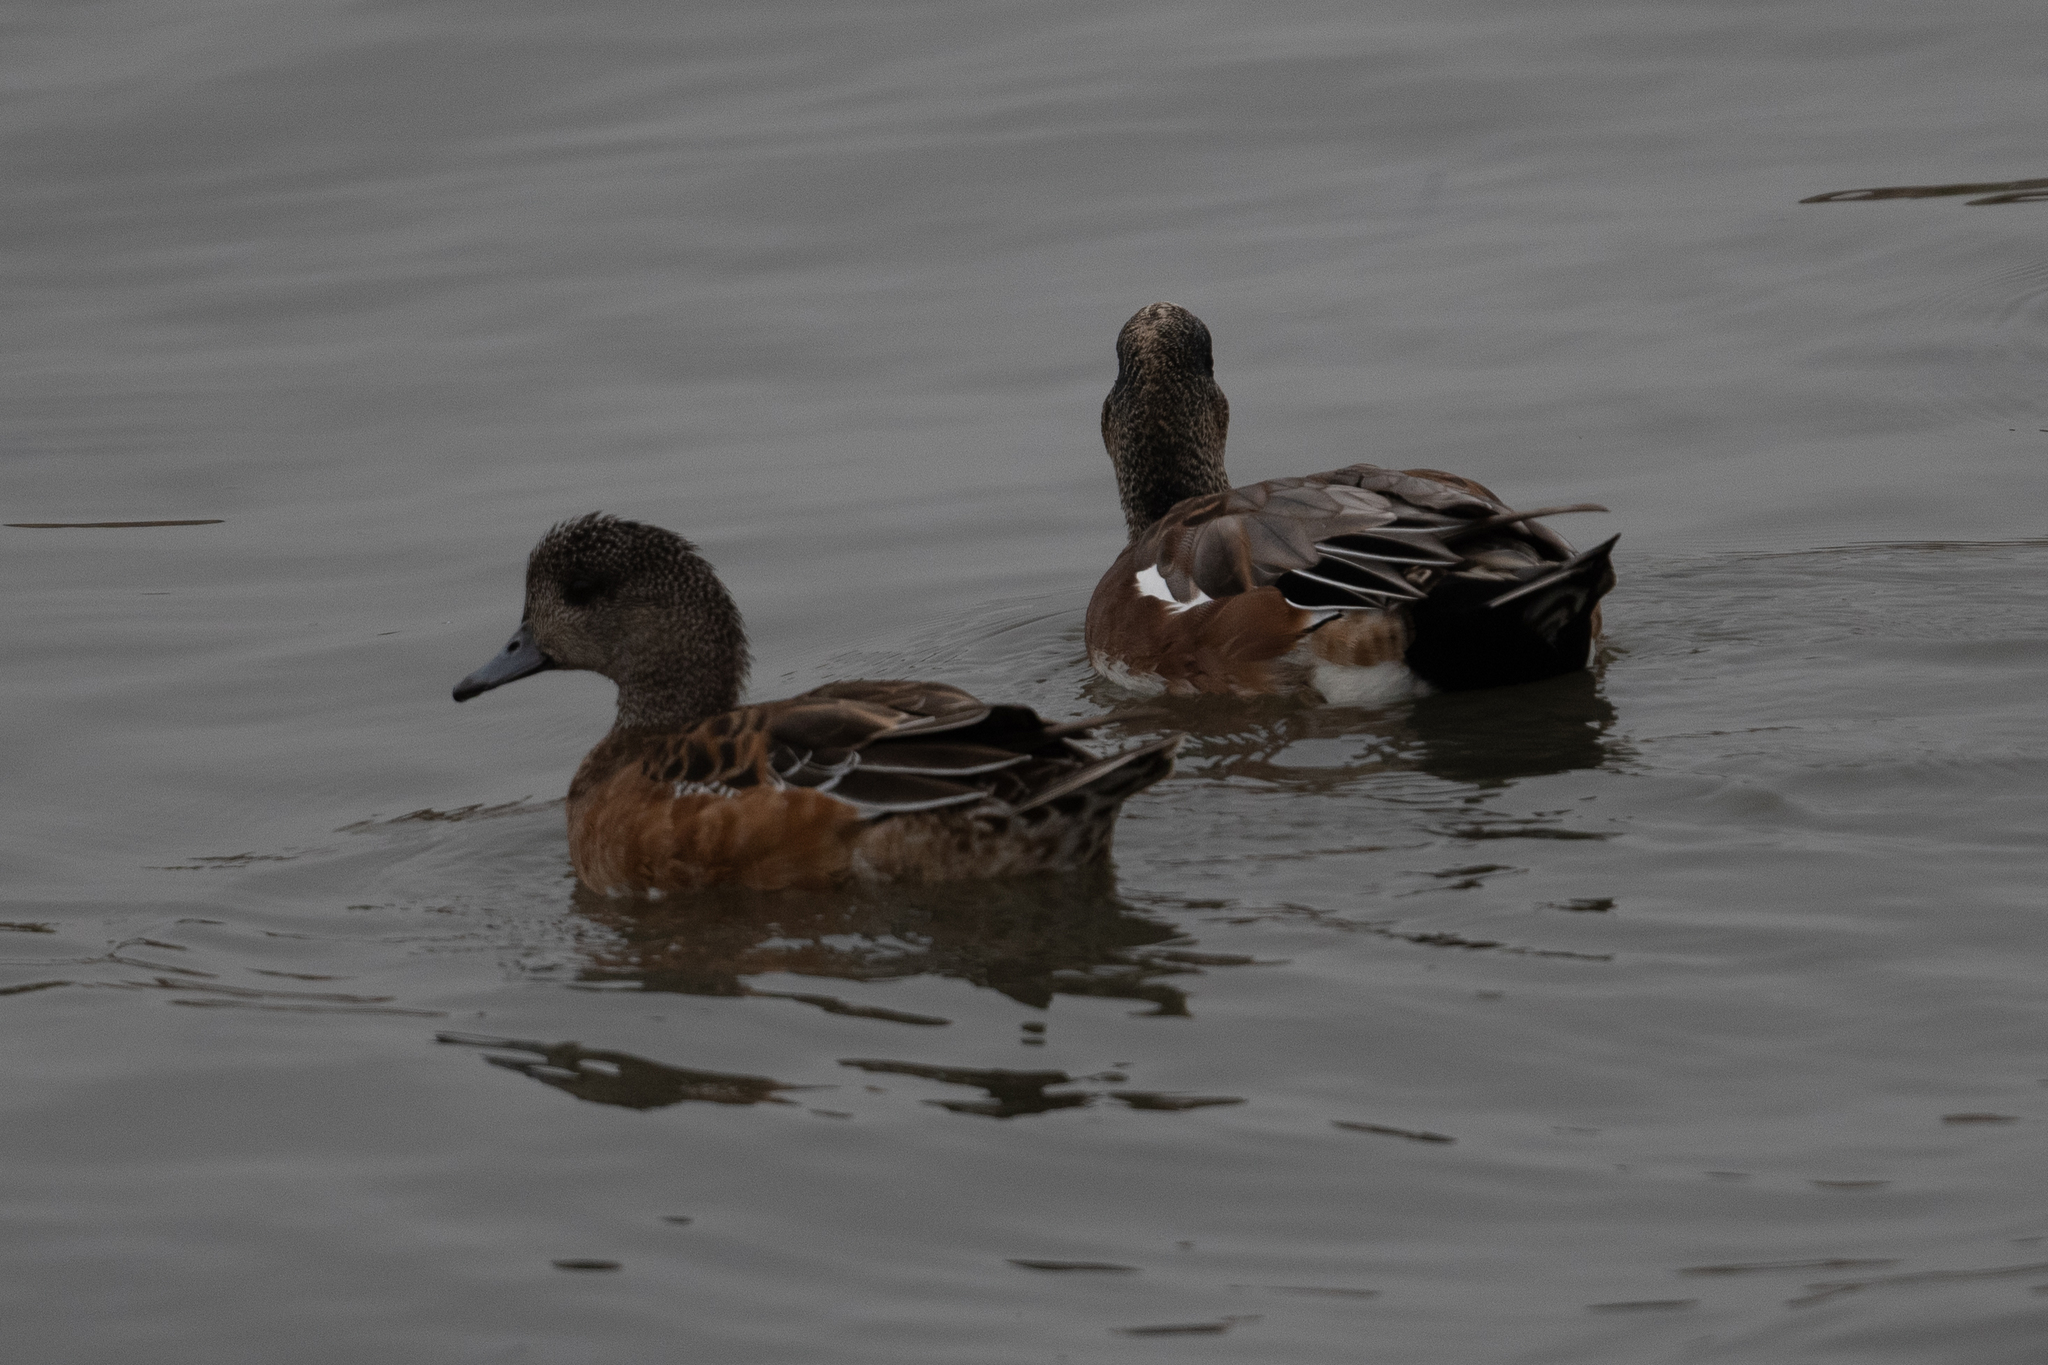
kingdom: Animalia
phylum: Chordata
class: Aves
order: Anseriformes
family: Anatidae
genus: Mareca
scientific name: Mareca americana
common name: American wigeon
